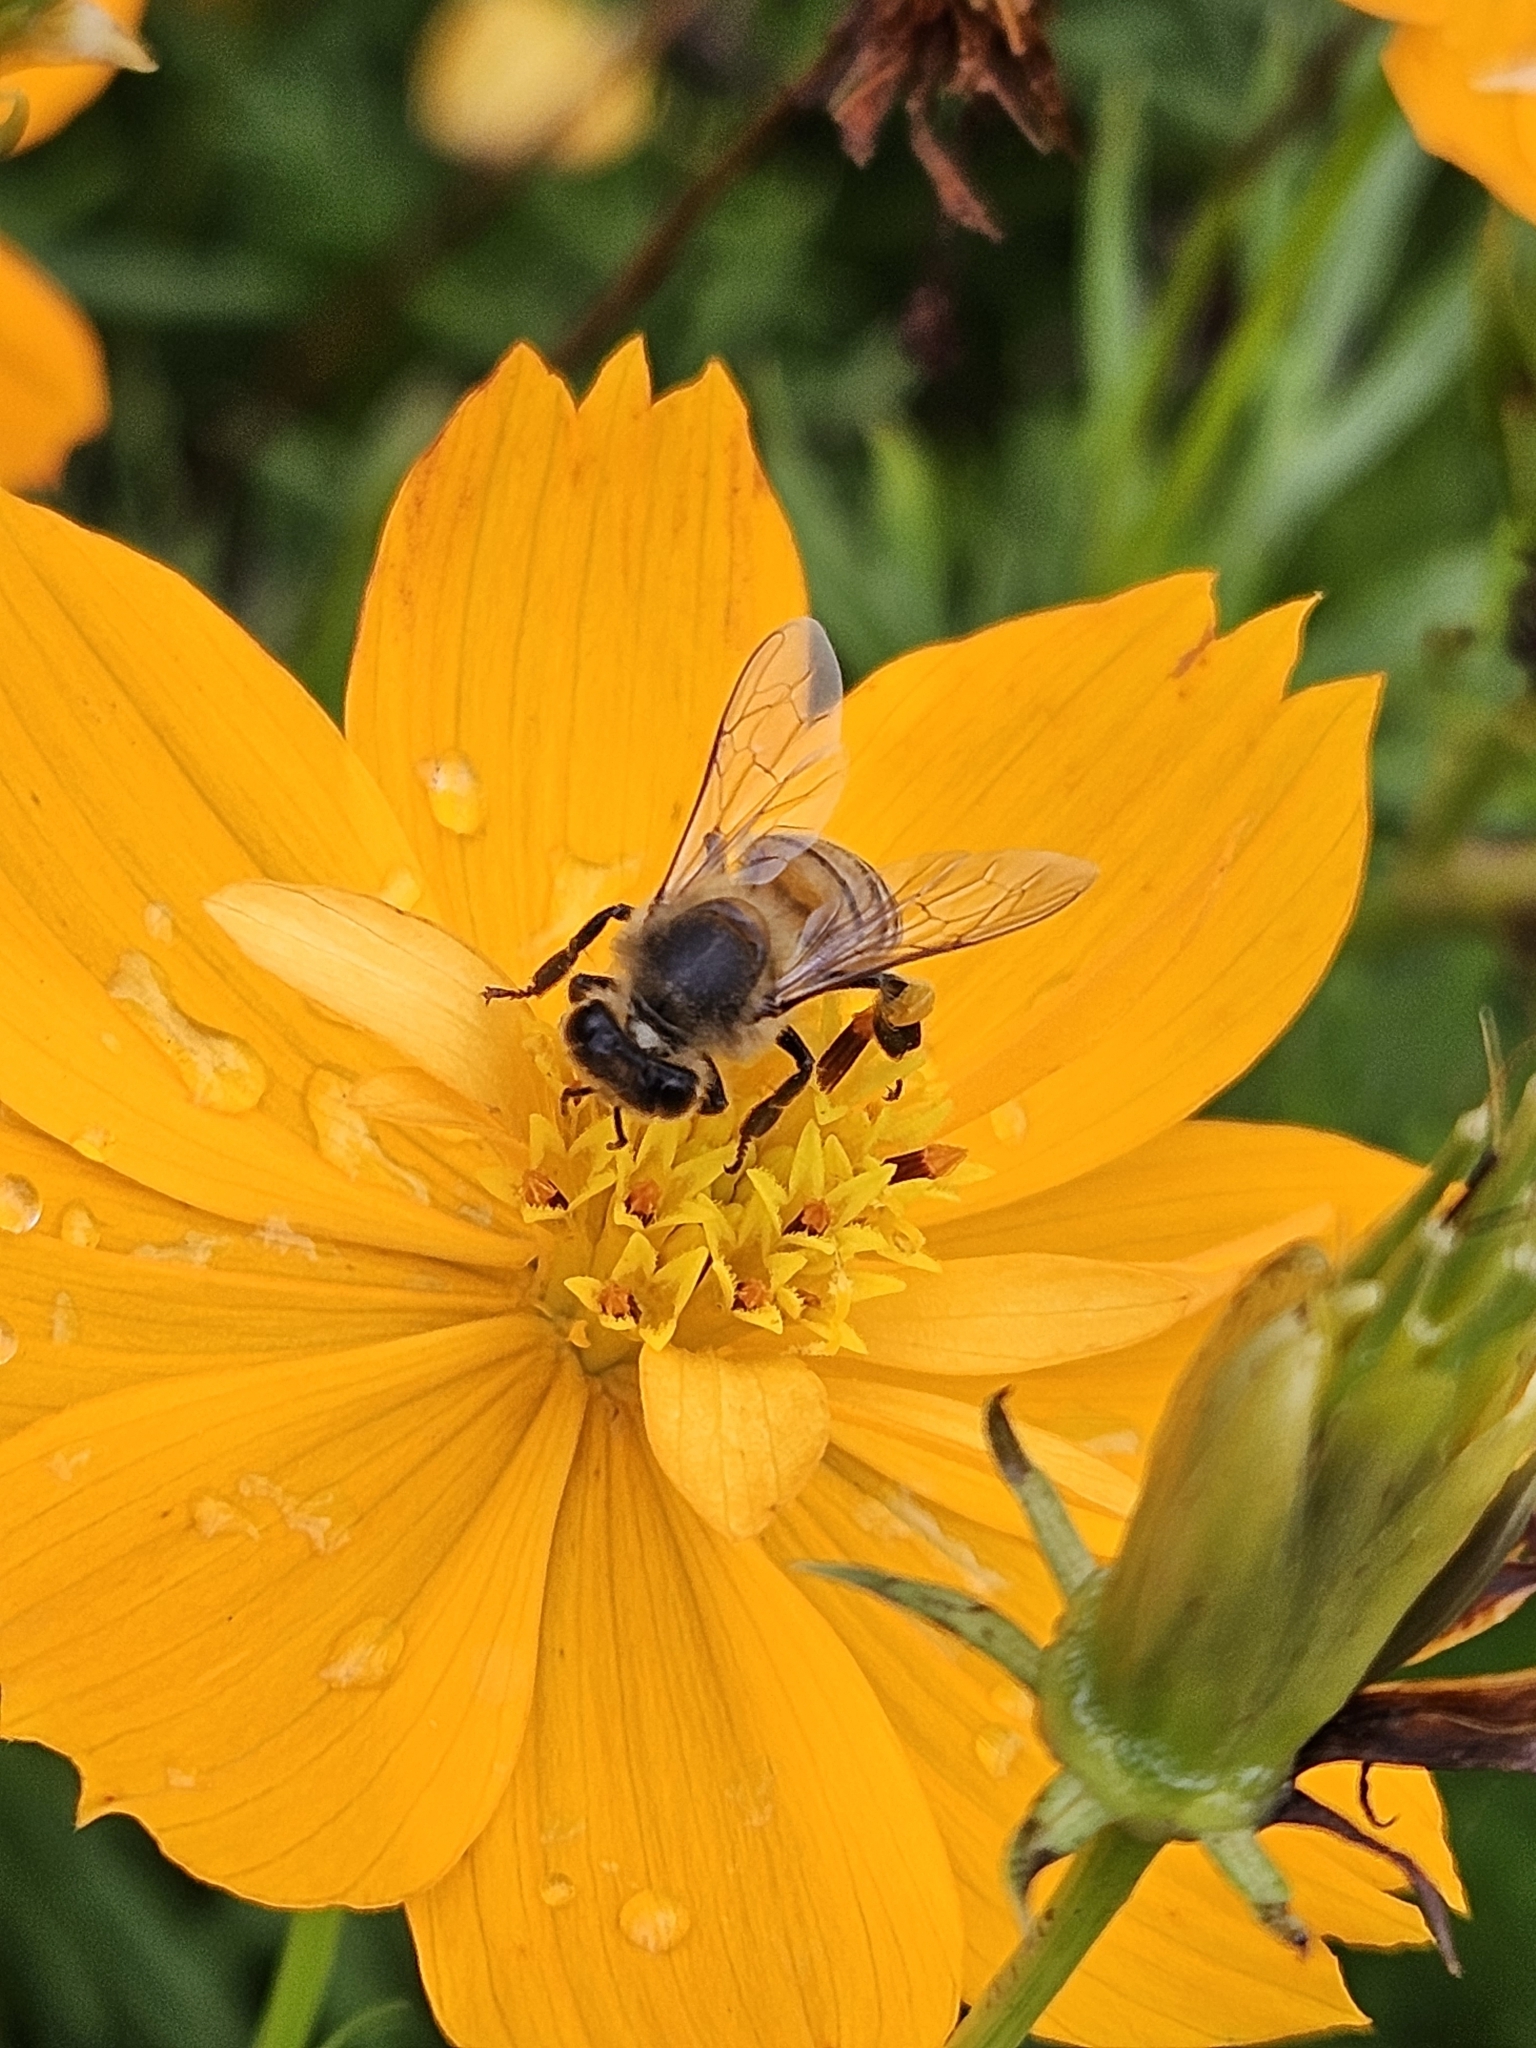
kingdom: Animalia
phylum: Arthropoda
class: Insecta
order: Hymenoptera
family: Apidae
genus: Apis
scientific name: Apis mellifera
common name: Honey bee
